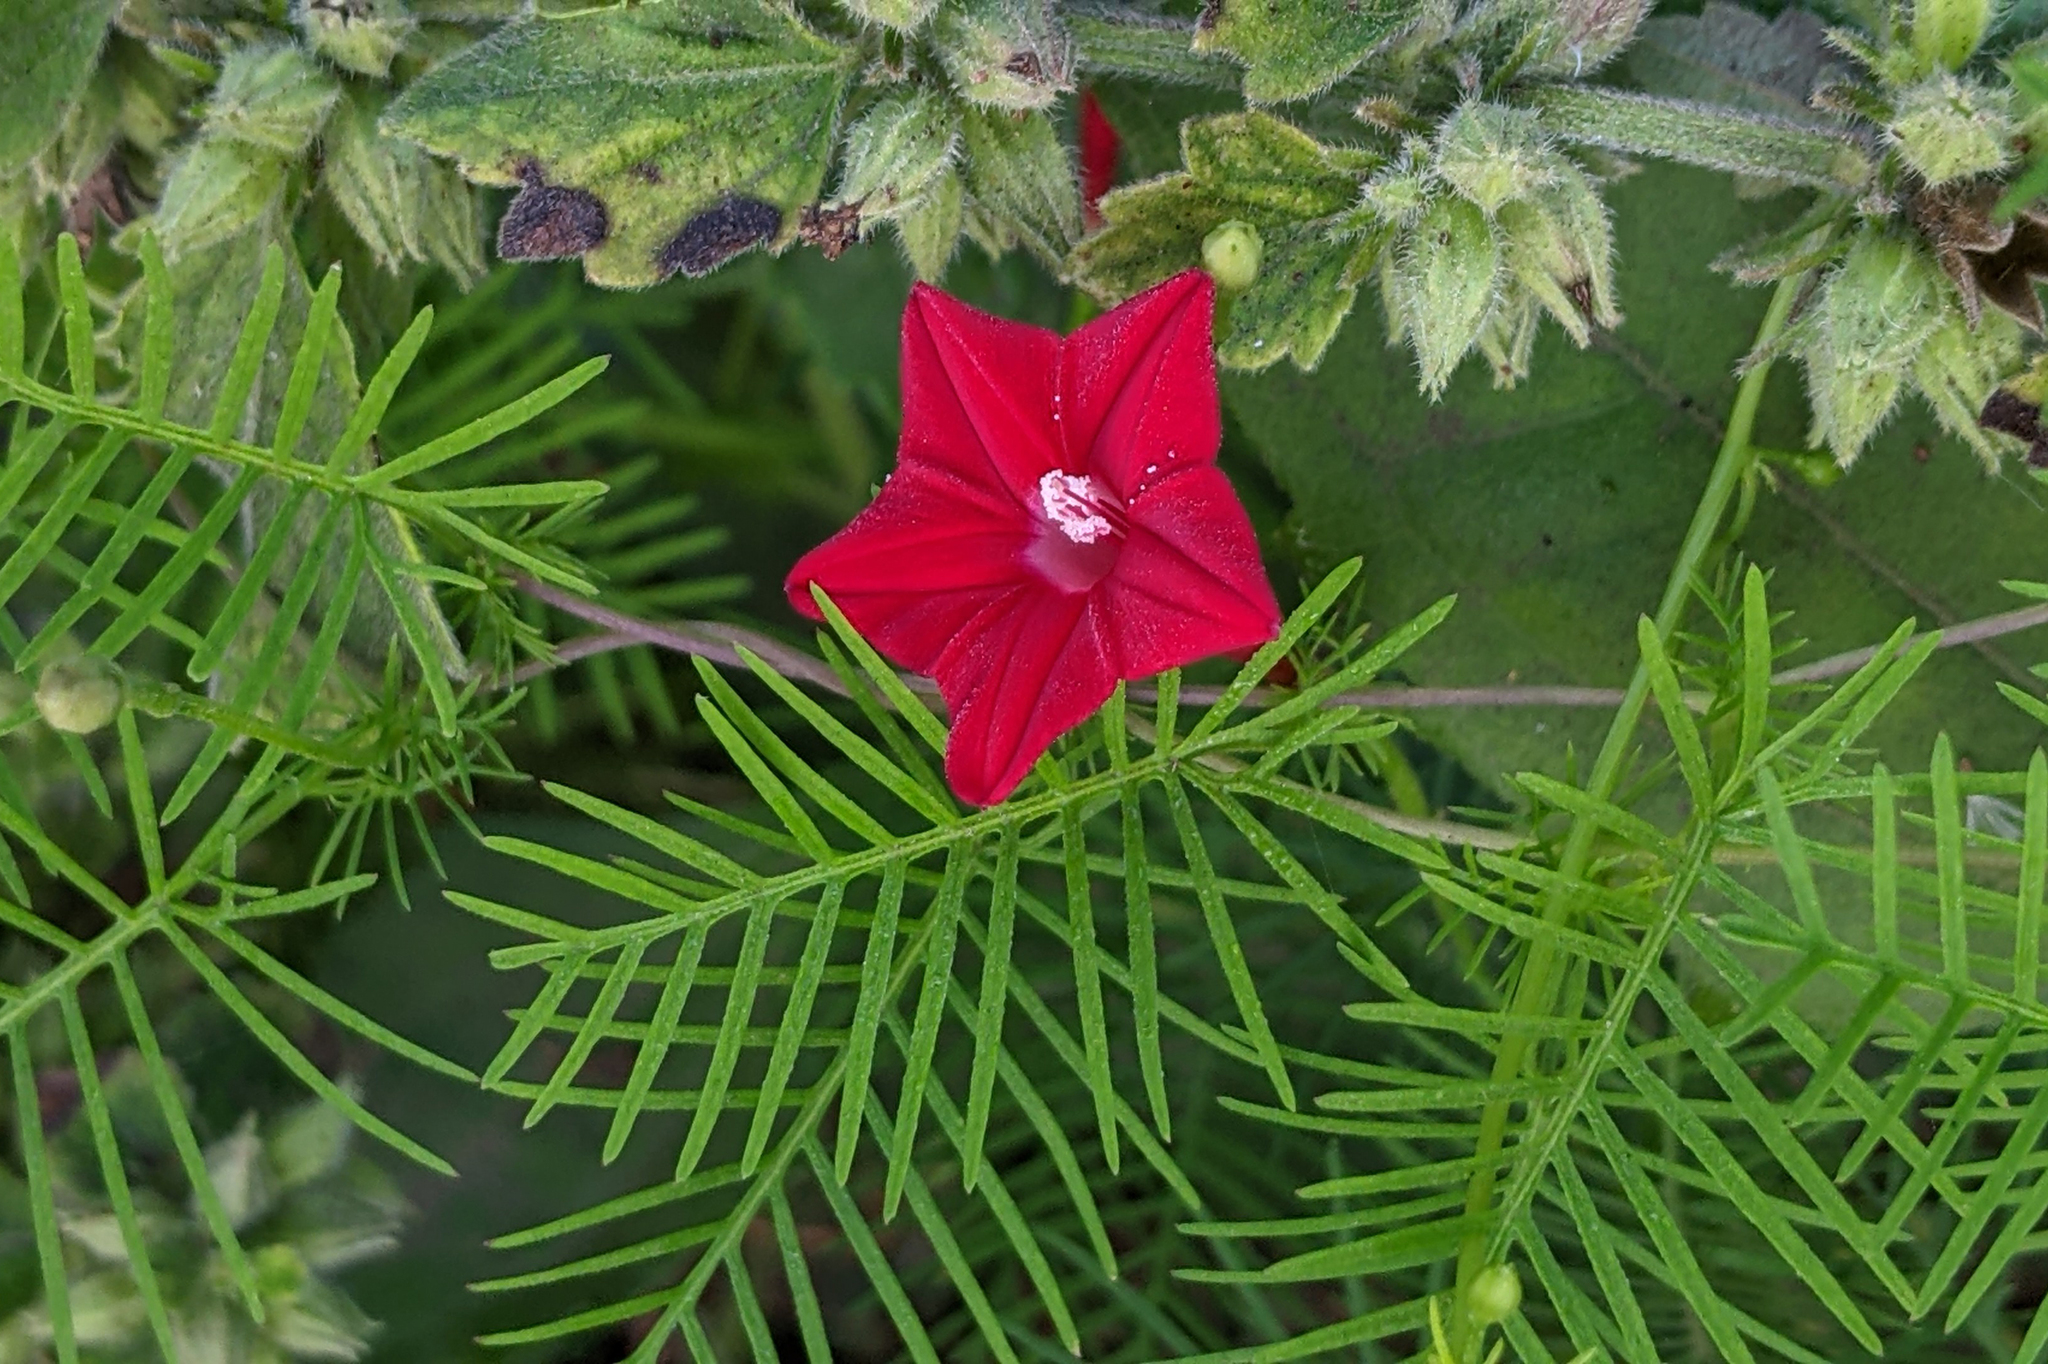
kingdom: Plantae
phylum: Tracheophyta
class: Magnoliopsida
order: Solanales
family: Convolvulaceae
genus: Ipomoea
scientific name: Ipomoea quamoclit
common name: Cypress vine
